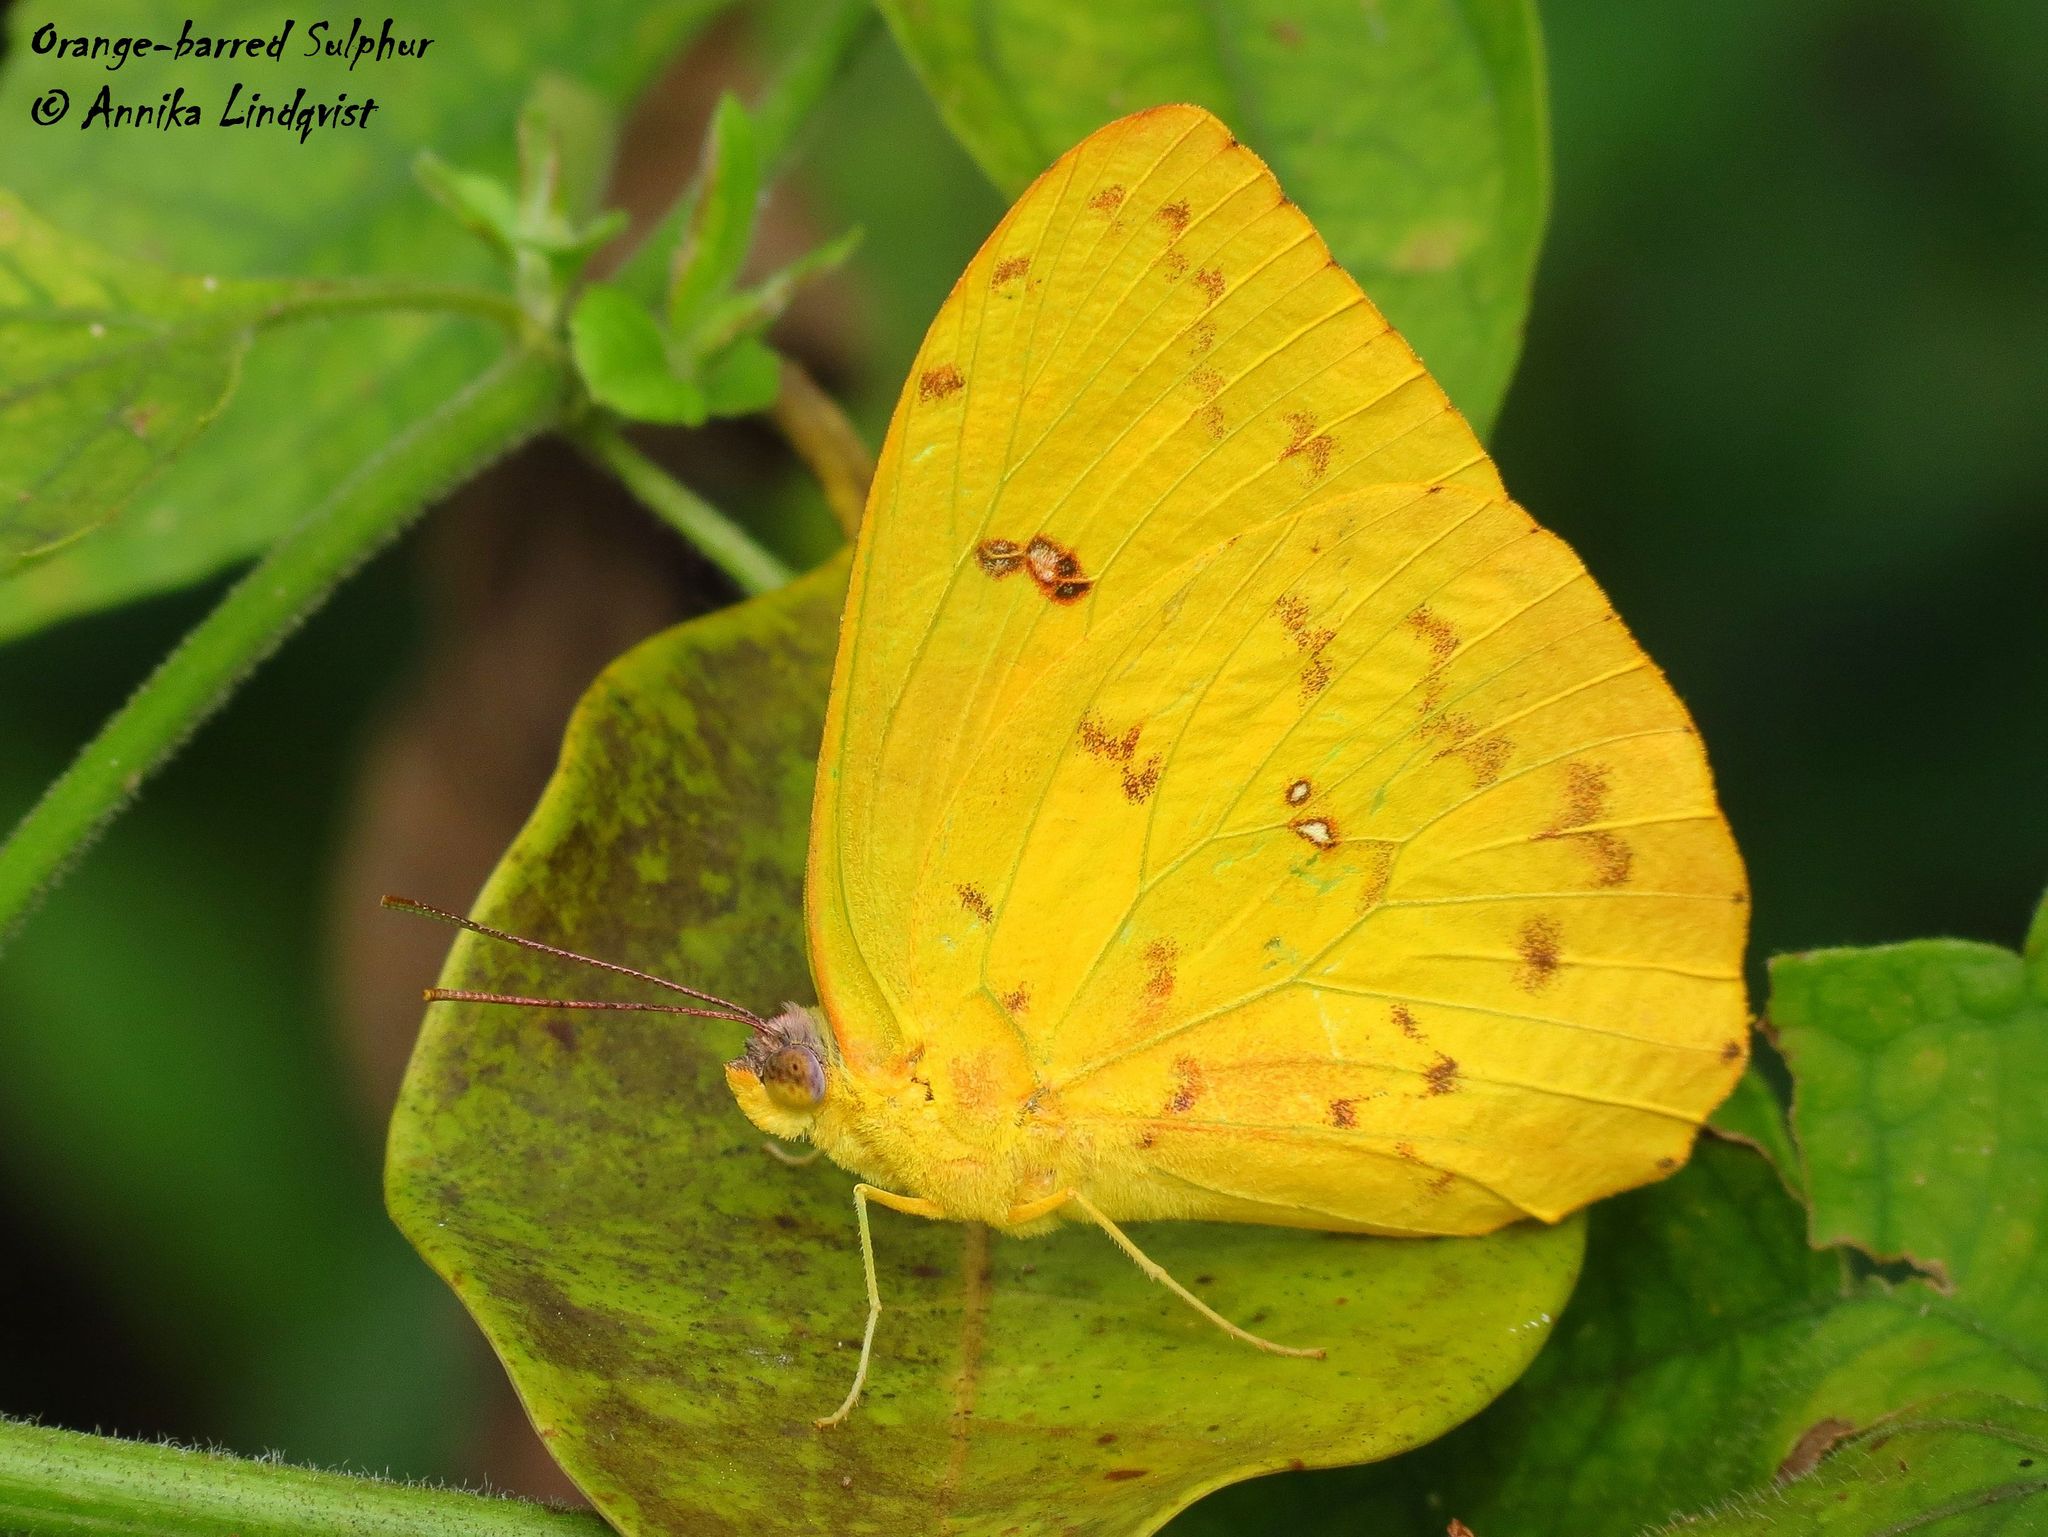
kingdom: Animalia
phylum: Arthropoda
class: Insecta
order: Lepidoptera
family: Pieridae
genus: Phoebis
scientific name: Phoebis philea
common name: Orange-barred giant sulphur
